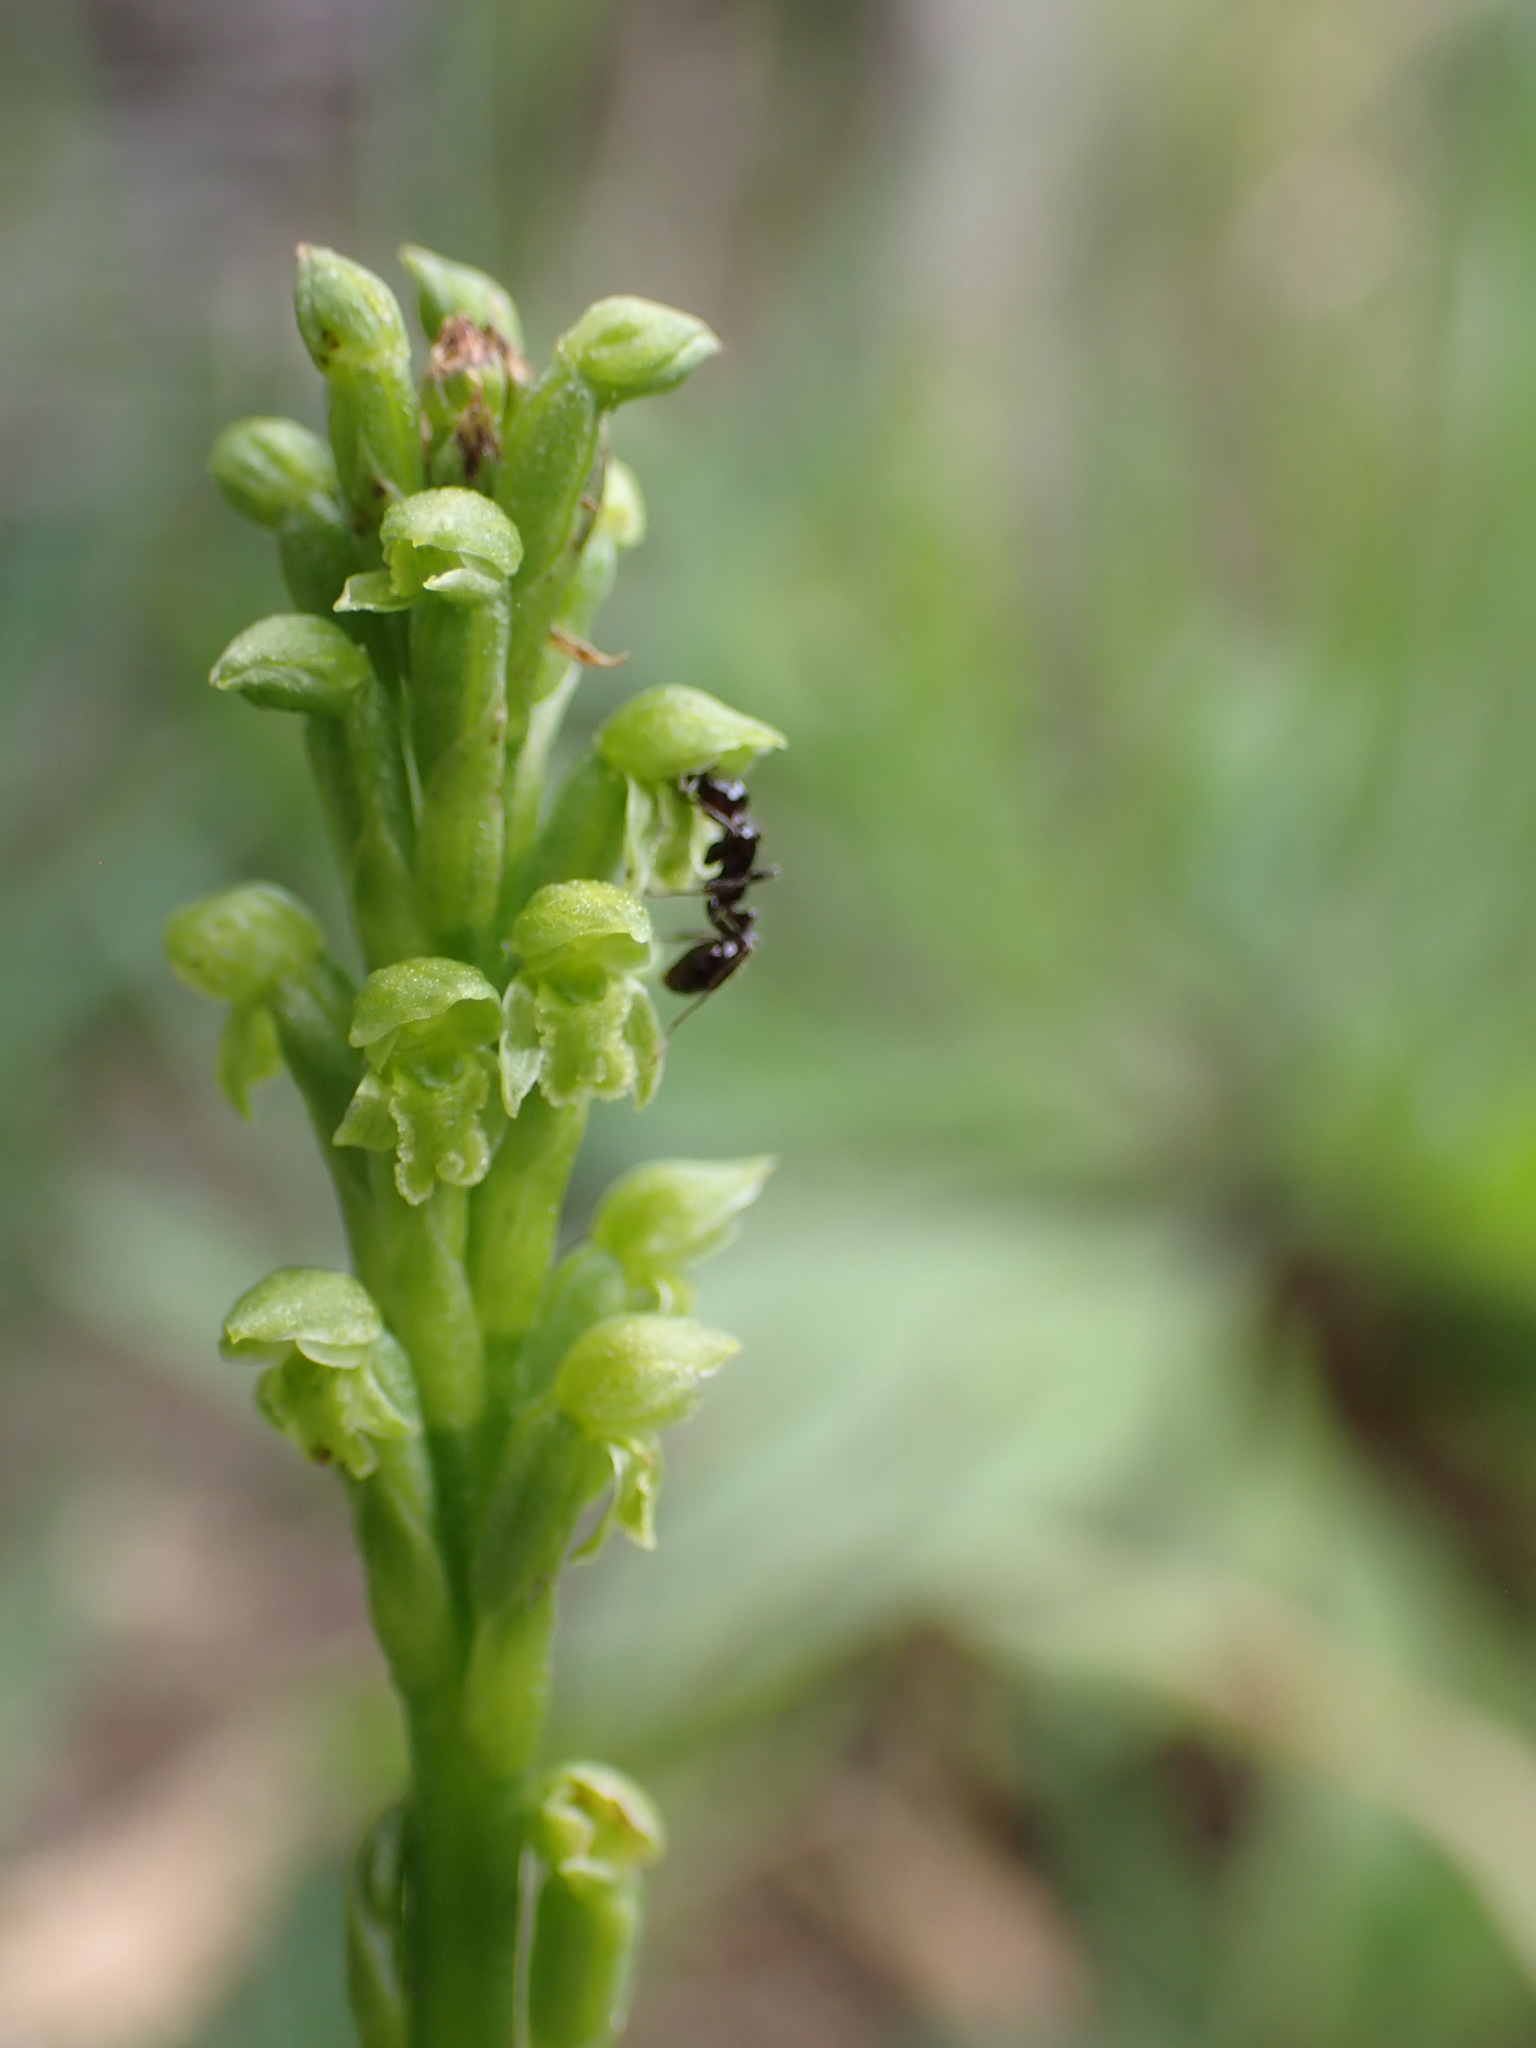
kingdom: Plantae
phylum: Tracheophyta
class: Liliopsida
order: Asparagales
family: Orchidaceae
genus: Microtis
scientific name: Microtis unifolia
